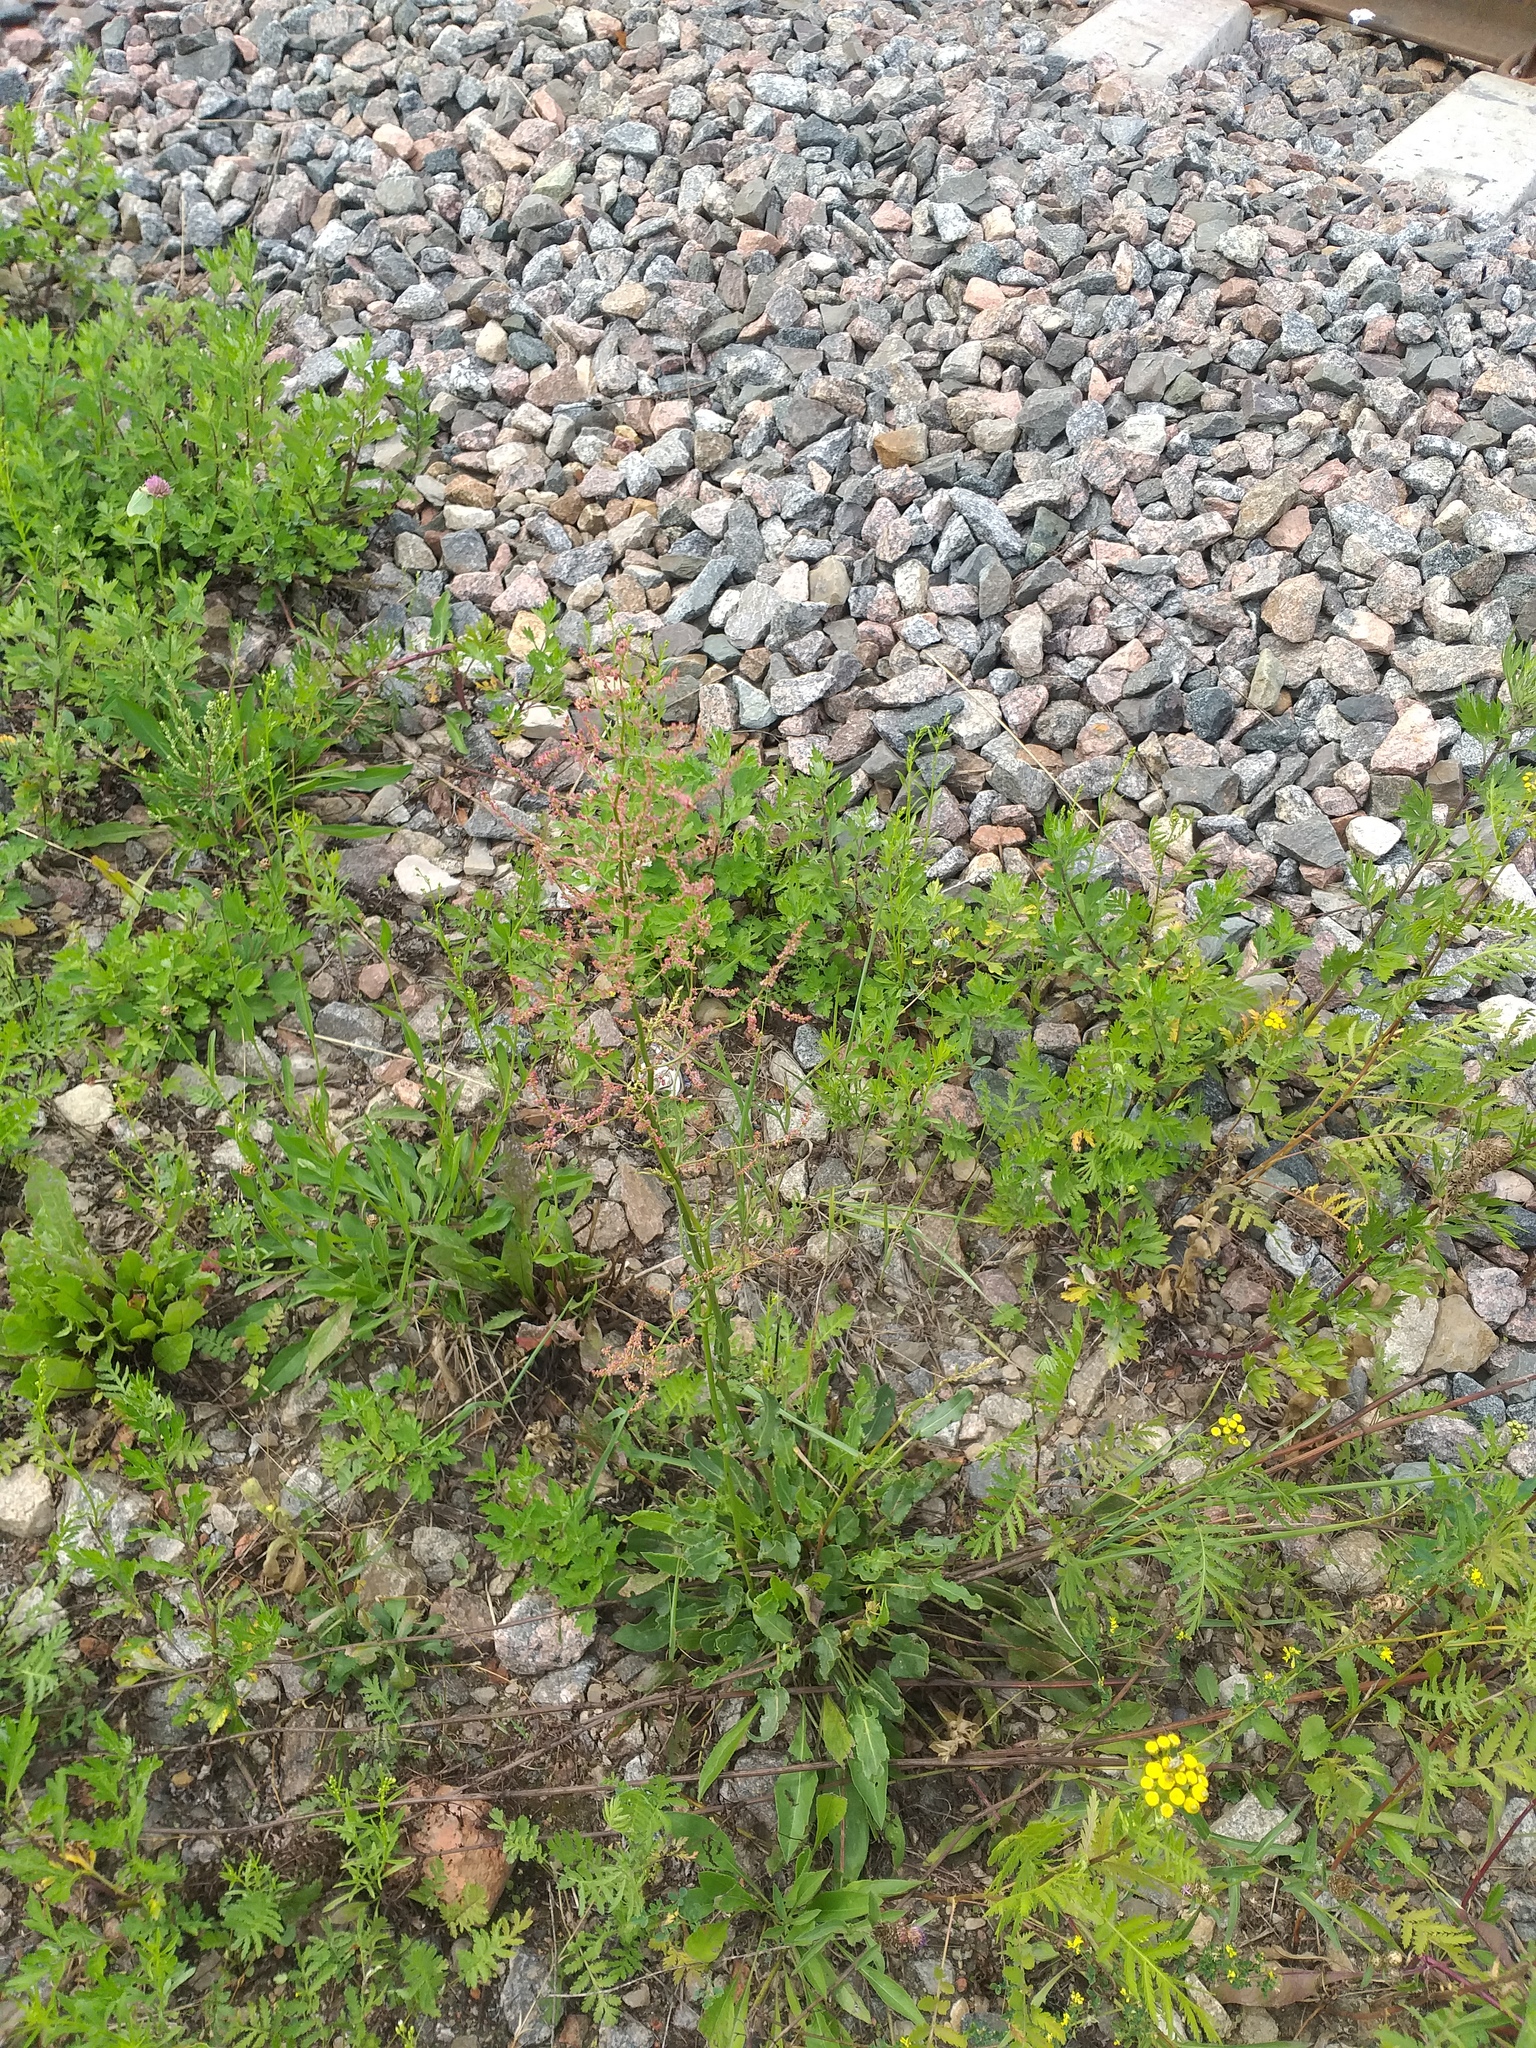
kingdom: Plantae
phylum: Tracheophyta
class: Magnoliopsida
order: Caryophyllales
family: Polygonaceae
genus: Rumex
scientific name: Rumex thyrsiflorus
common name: Garden sorrel
